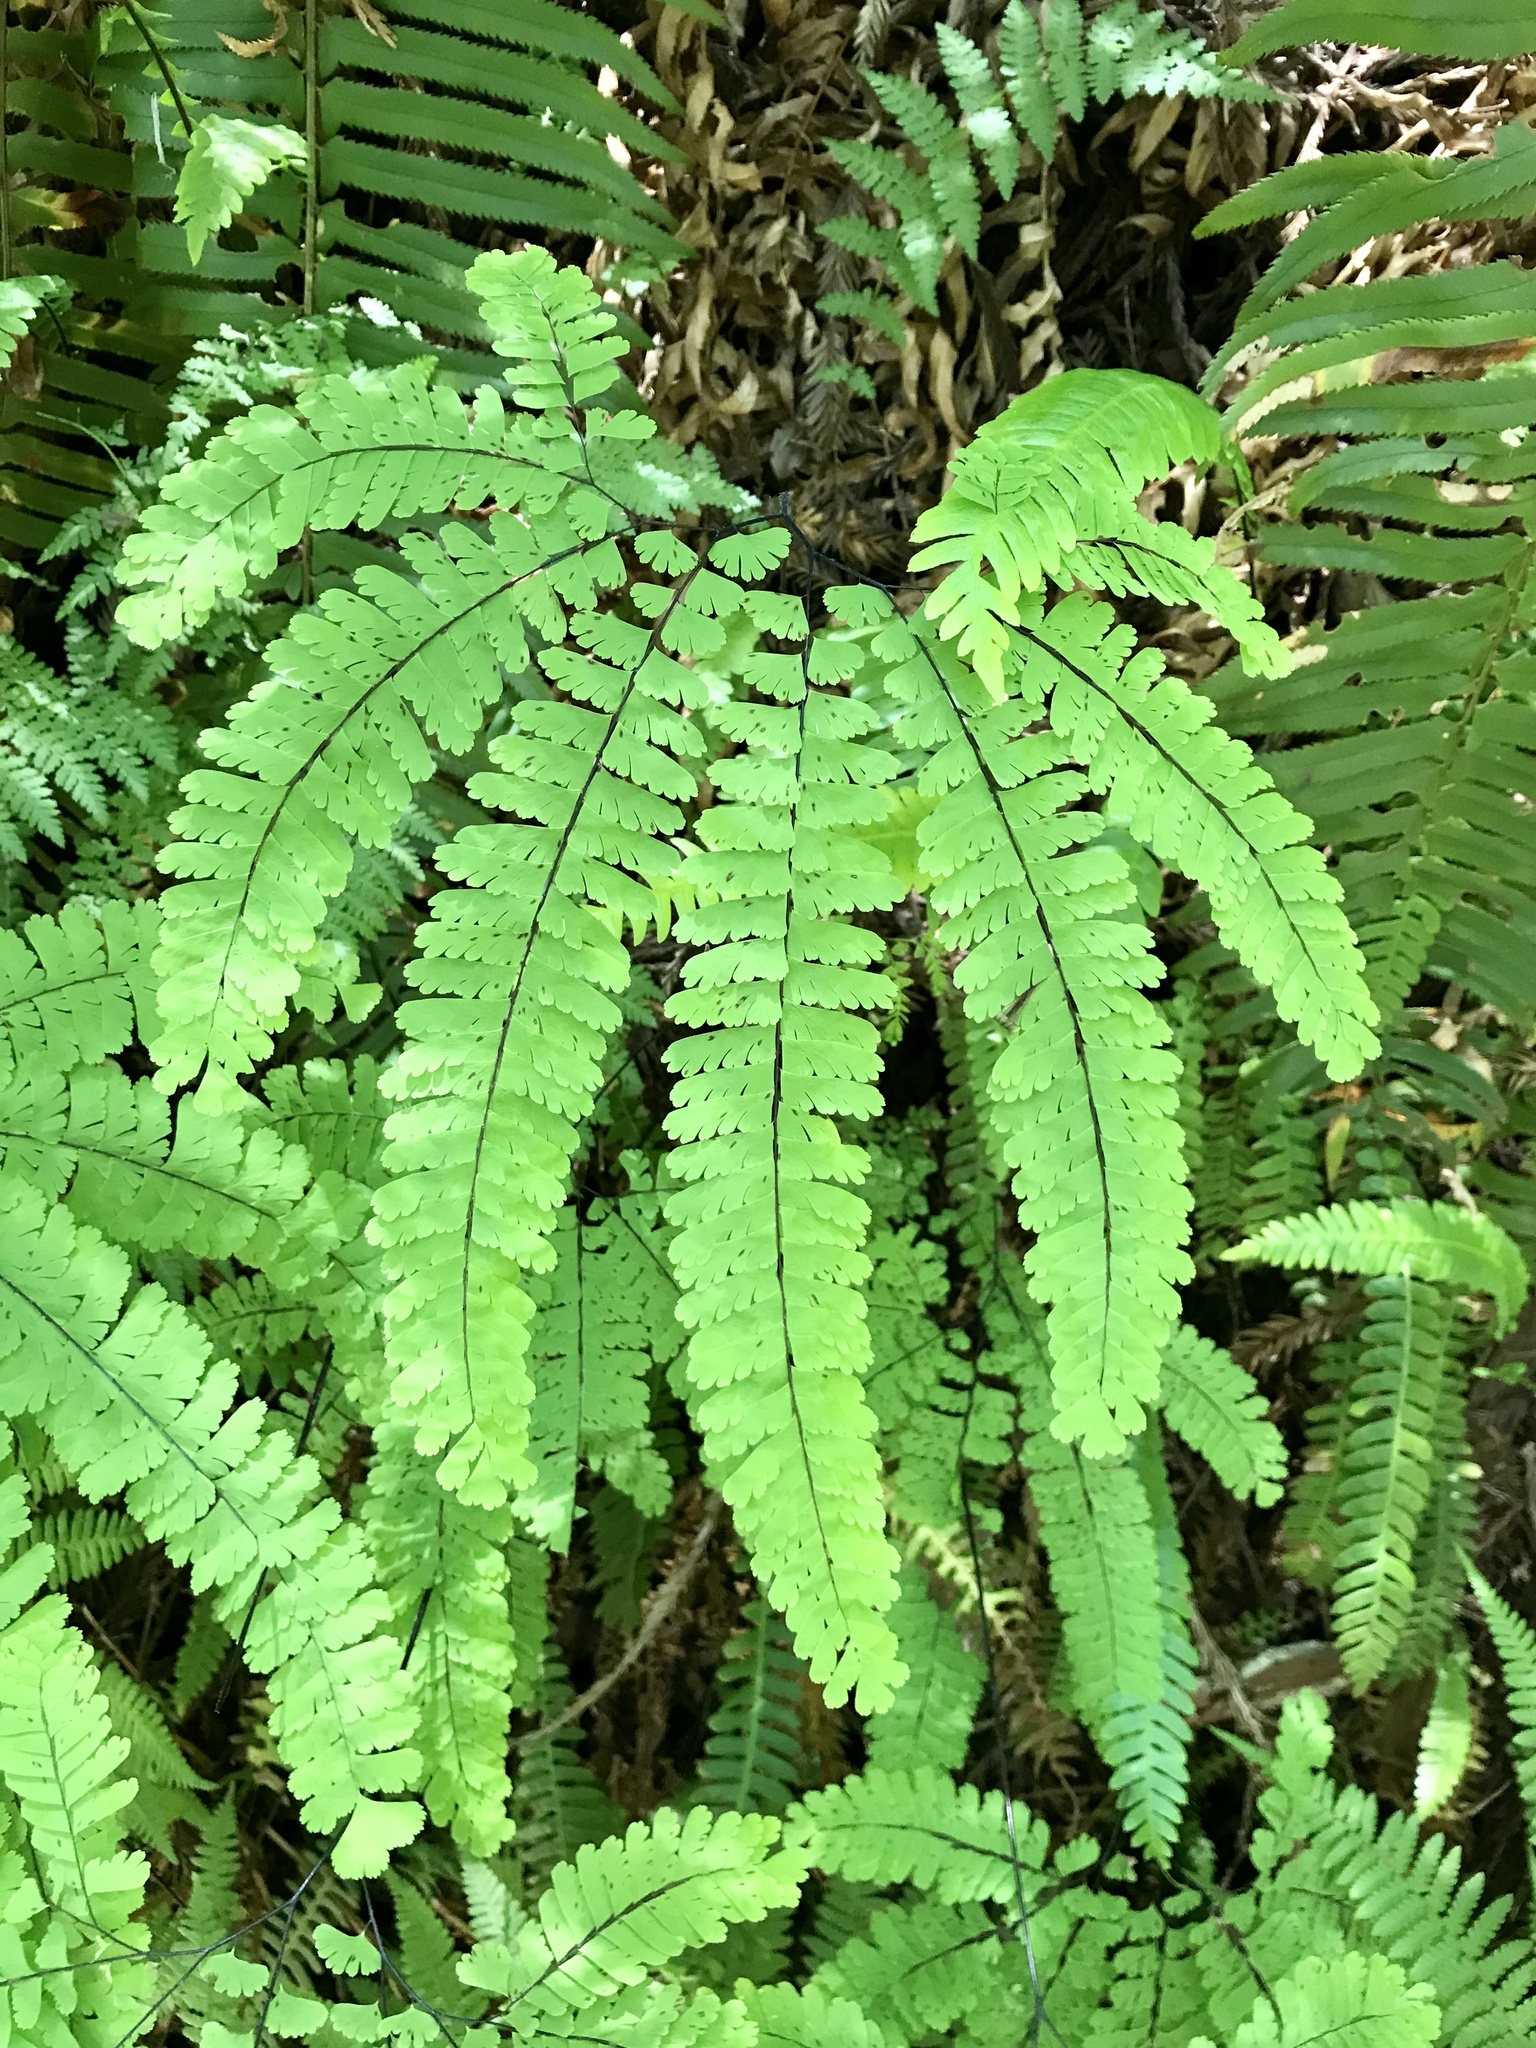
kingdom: Plantae
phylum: Tracheophyta
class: Polypodiopsida
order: Polypodiales
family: Pteridaceae
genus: Adiantum
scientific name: Adiantum aleuticum
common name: Aleutian maidenhair fern
